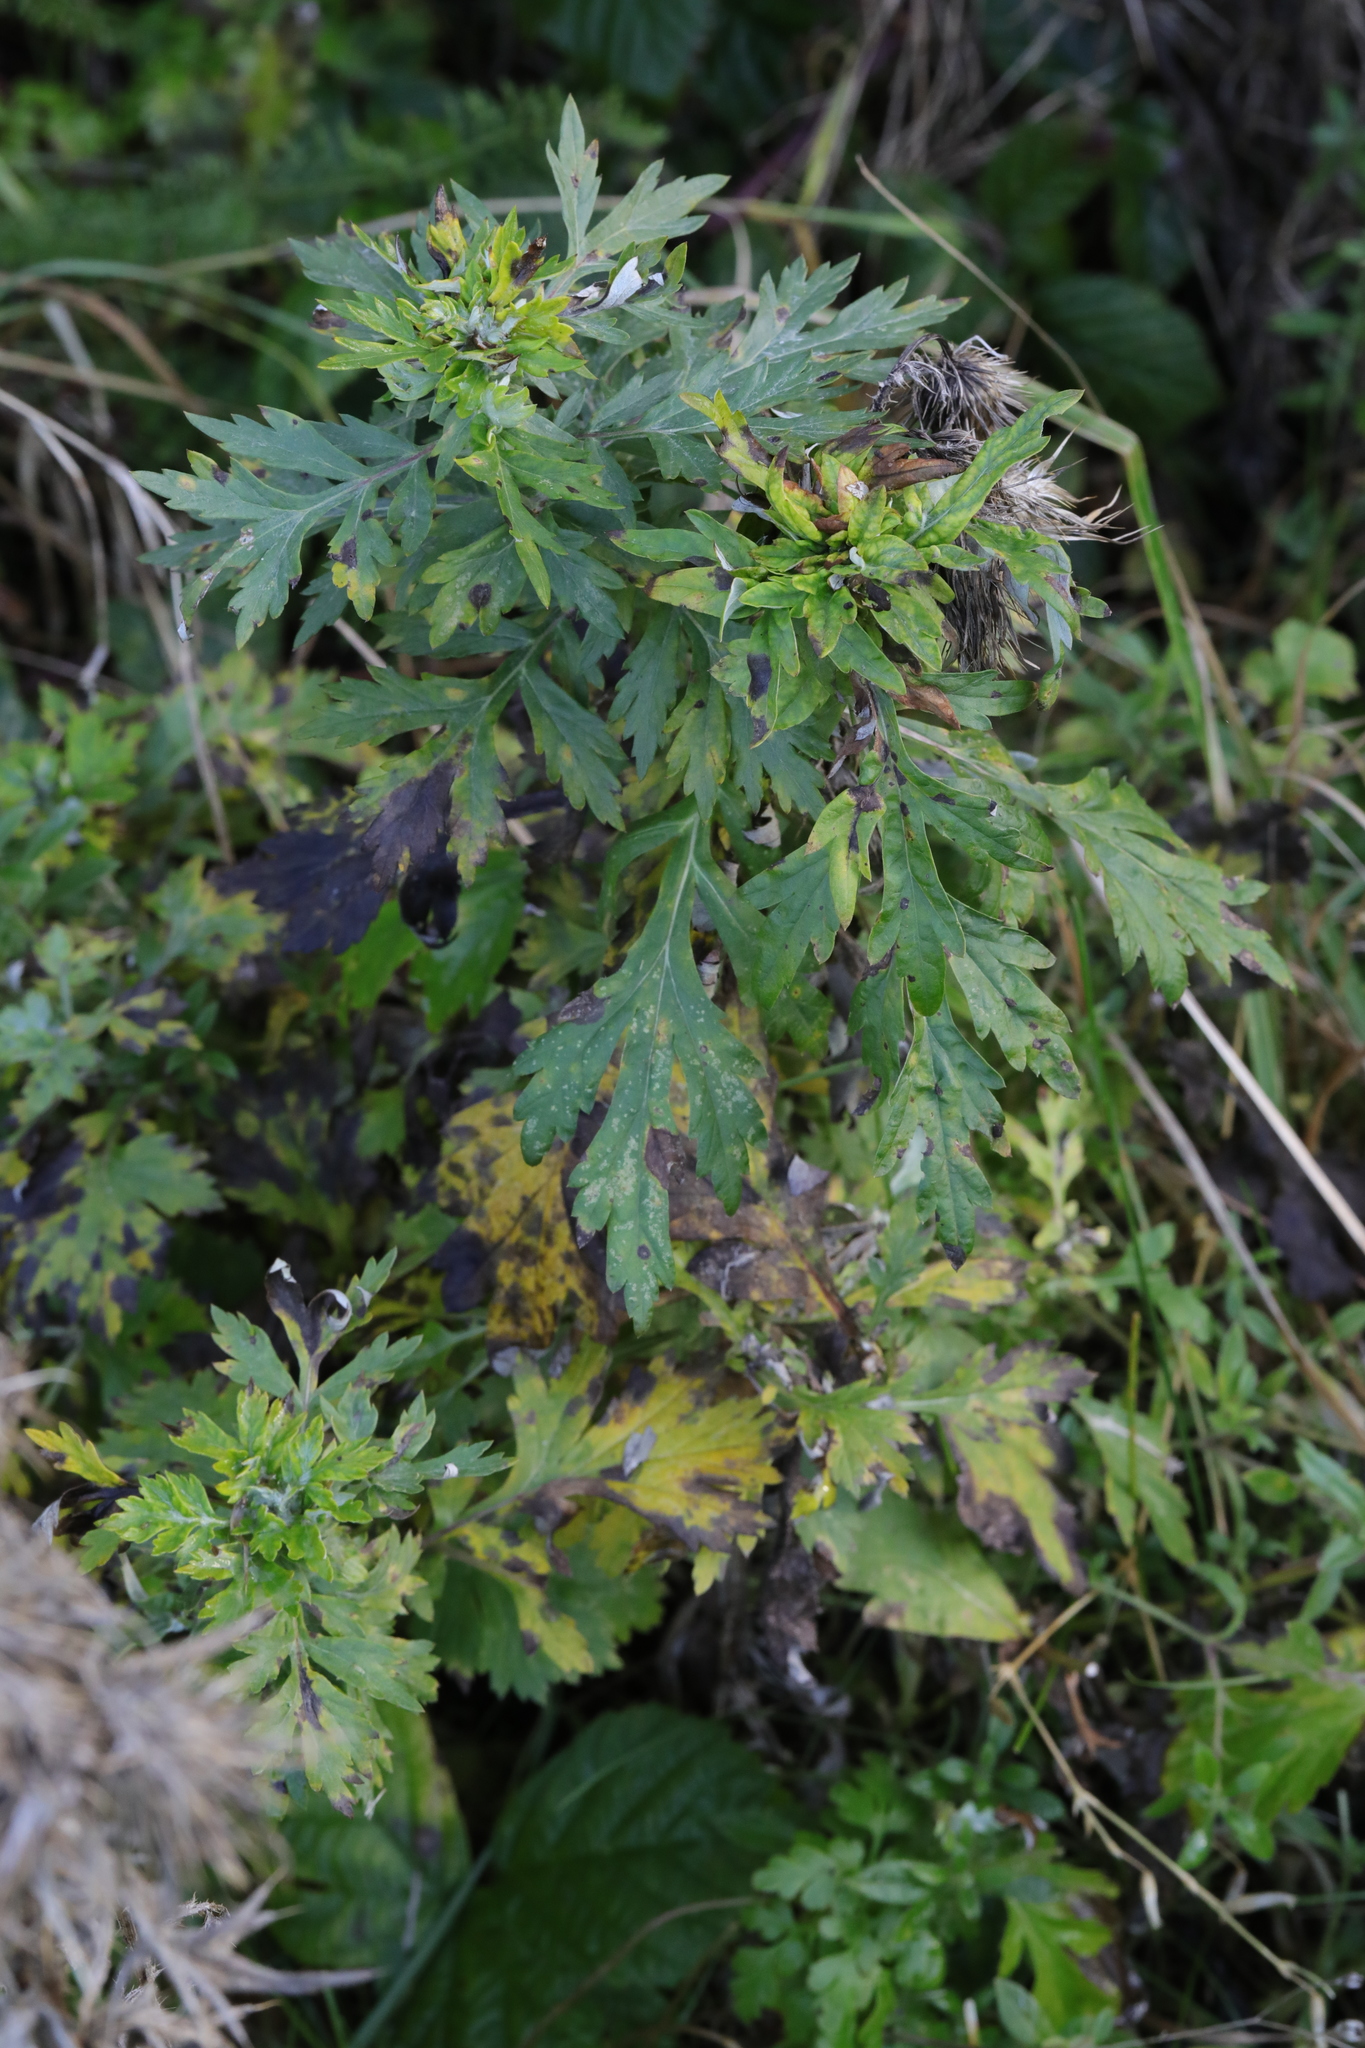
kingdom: Plantae
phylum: Tracheophyta
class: Magnoliopsida
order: Asterales
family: Asteraceae
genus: Artemisia
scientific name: Artemisia vulgaris
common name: Mugwort
